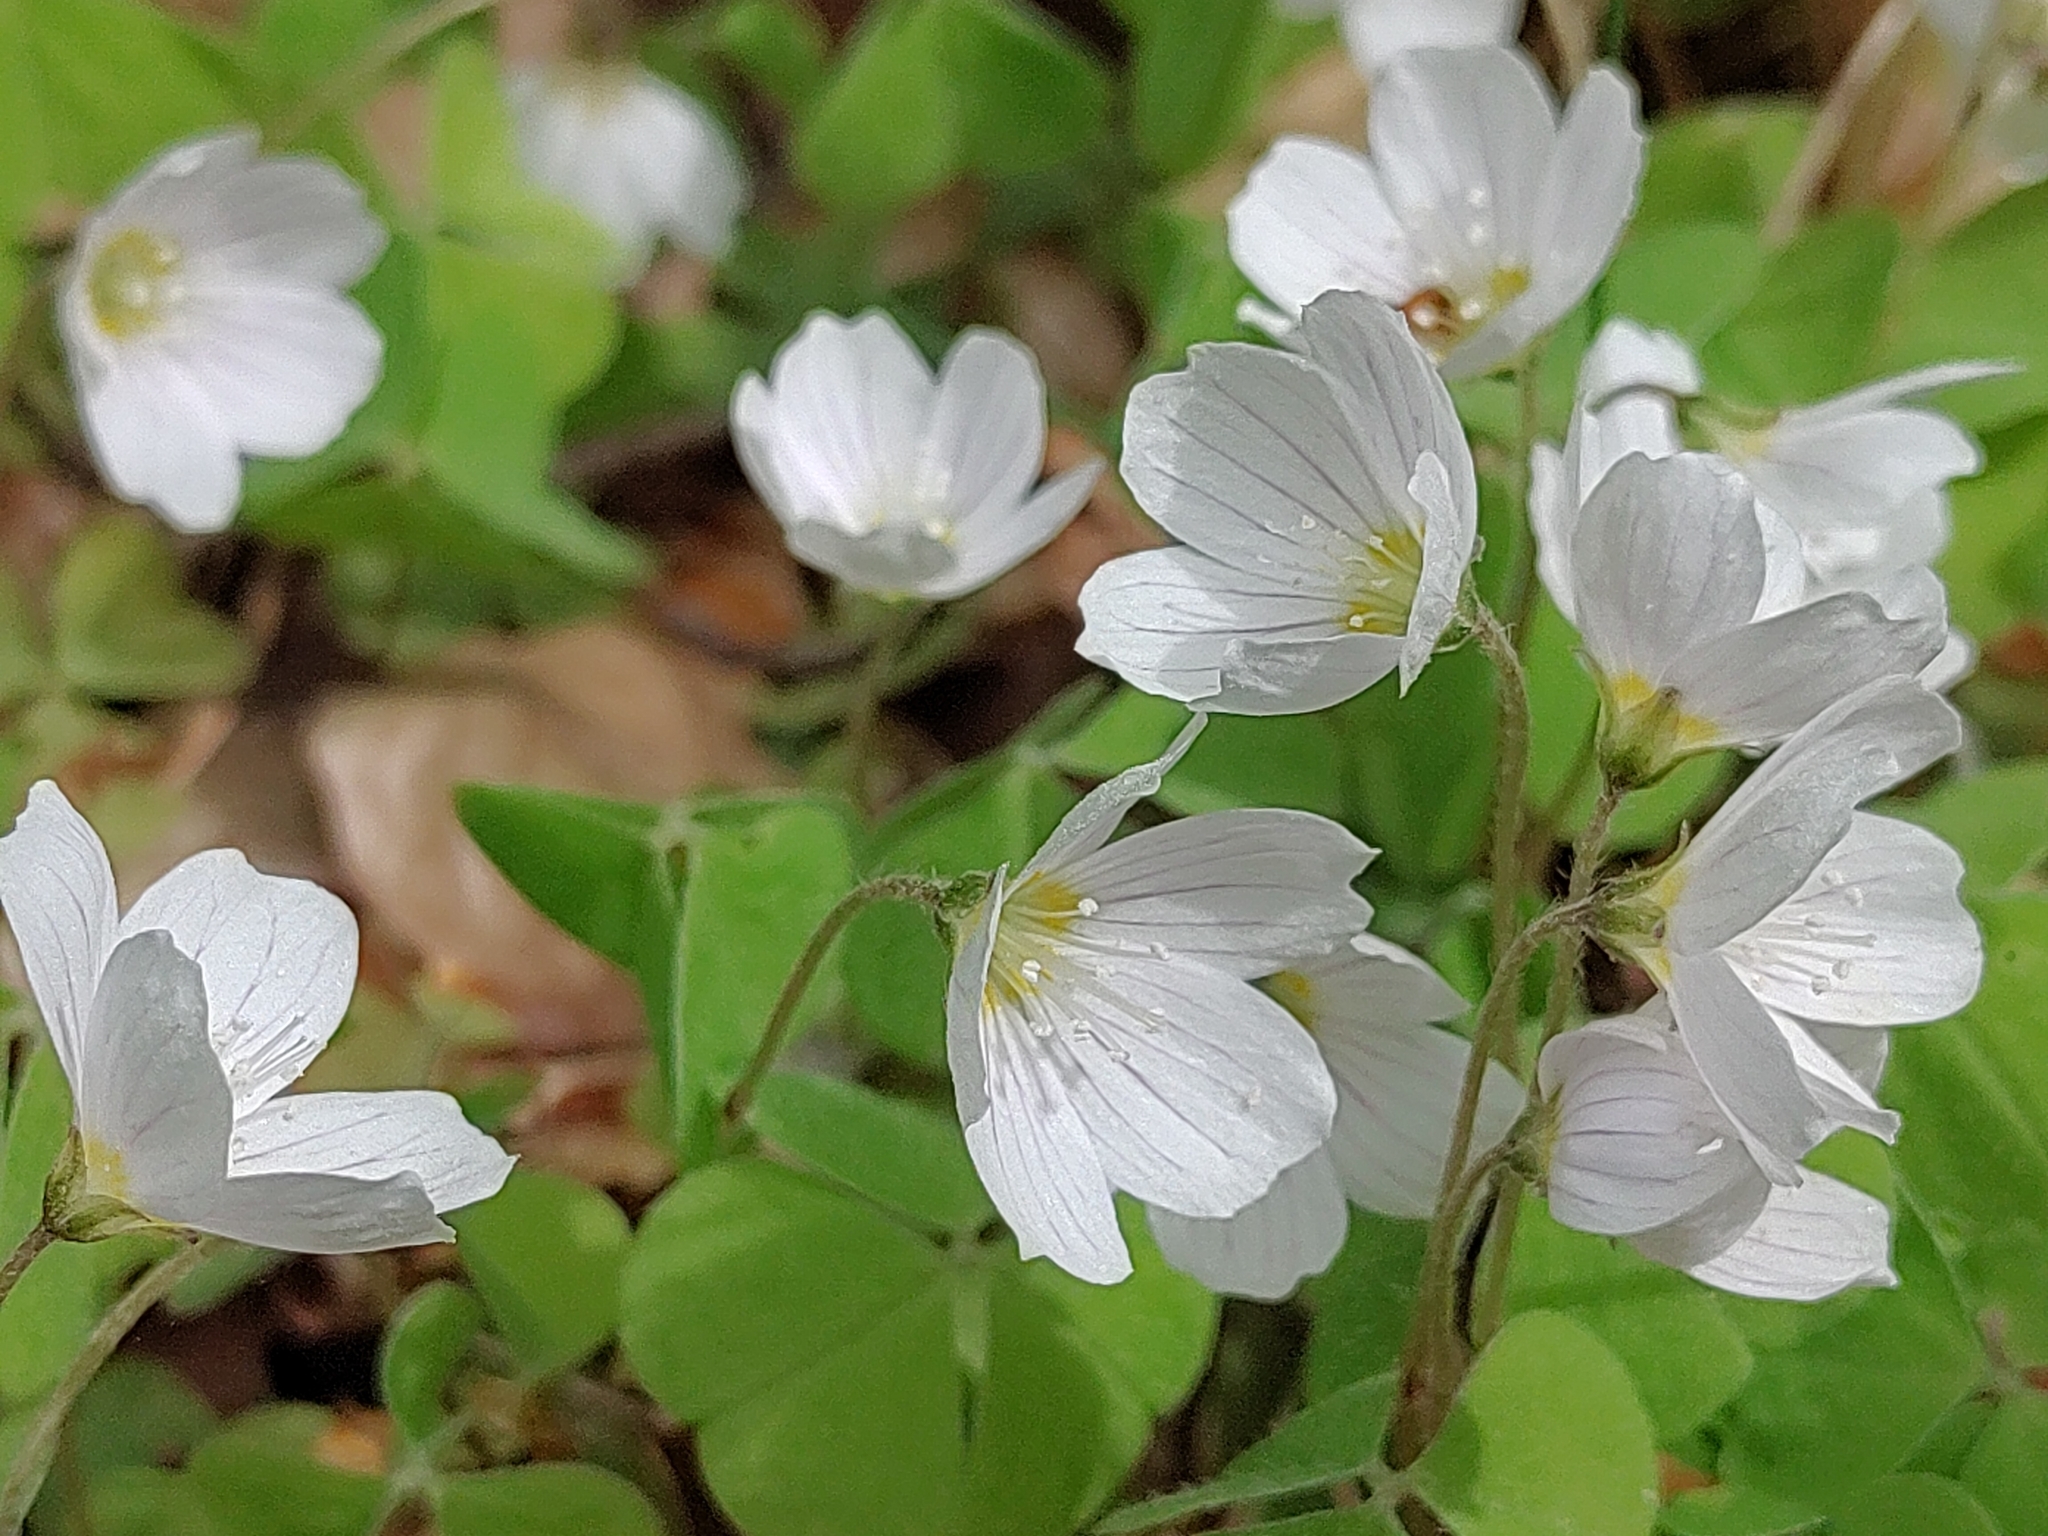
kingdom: Plantae
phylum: Tracheophyta
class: Magnoliopsida
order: Oxalidales
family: Oxalidaceae
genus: Oxalis
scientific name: Oxalis acetosella
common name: Wood-sorrel
